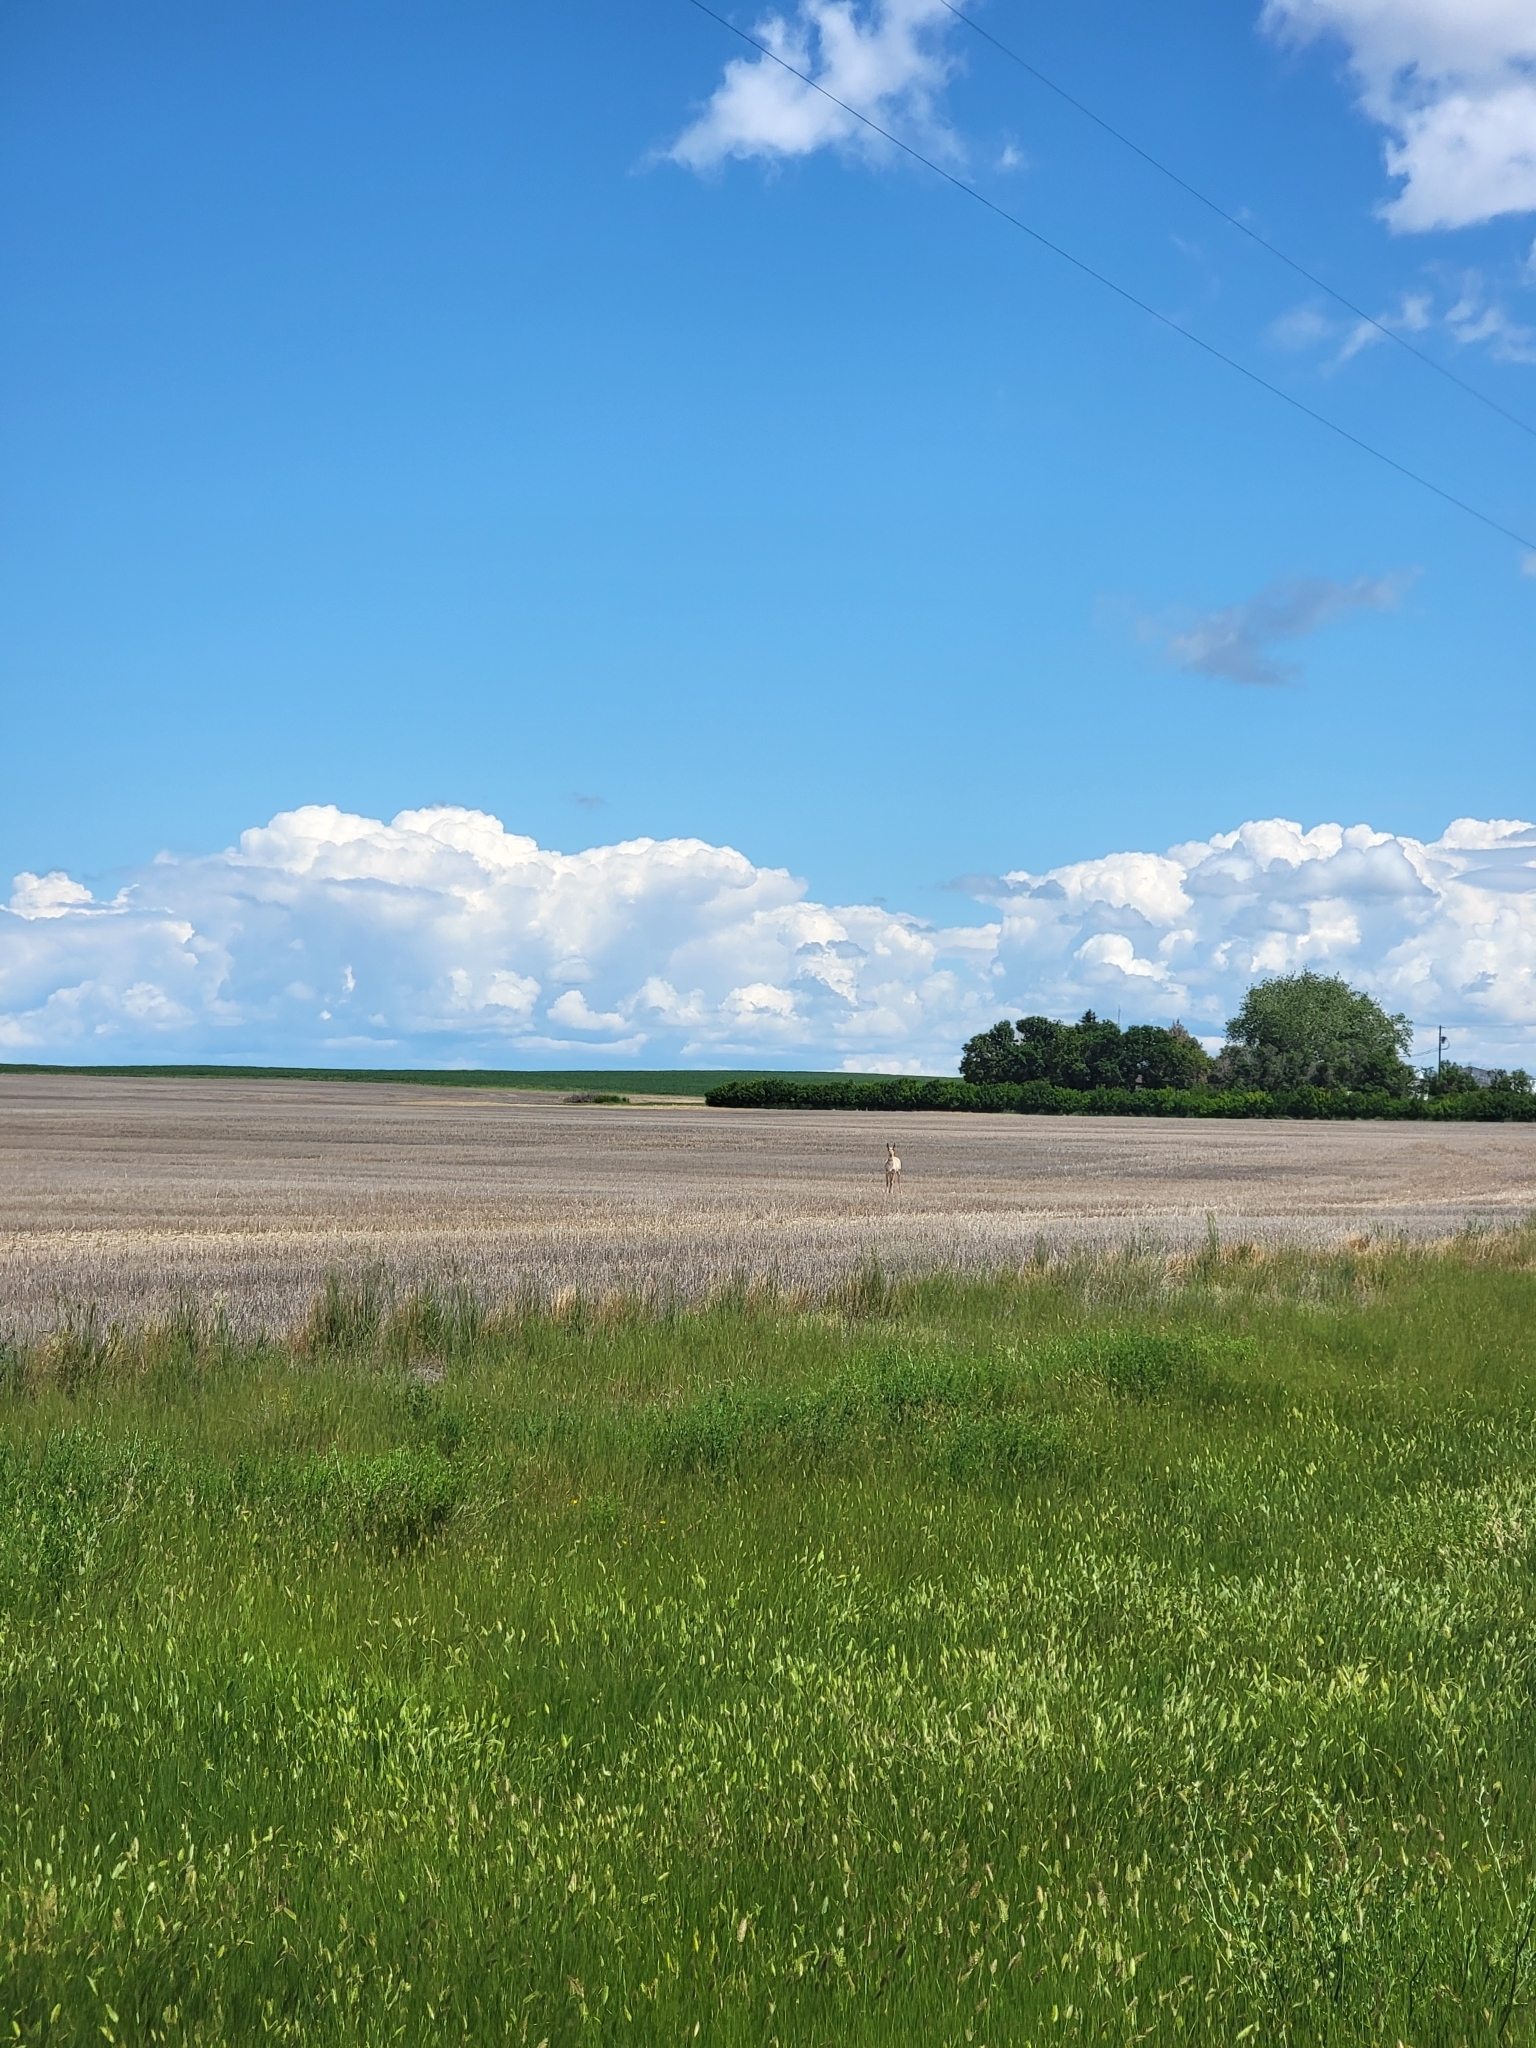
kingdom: Animalia
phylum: Chordata
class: Mammalia
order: Artiodactyla
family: Antilocapridae
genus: Antilocapra
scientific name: Antilocapra americana
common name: Pronghorn
